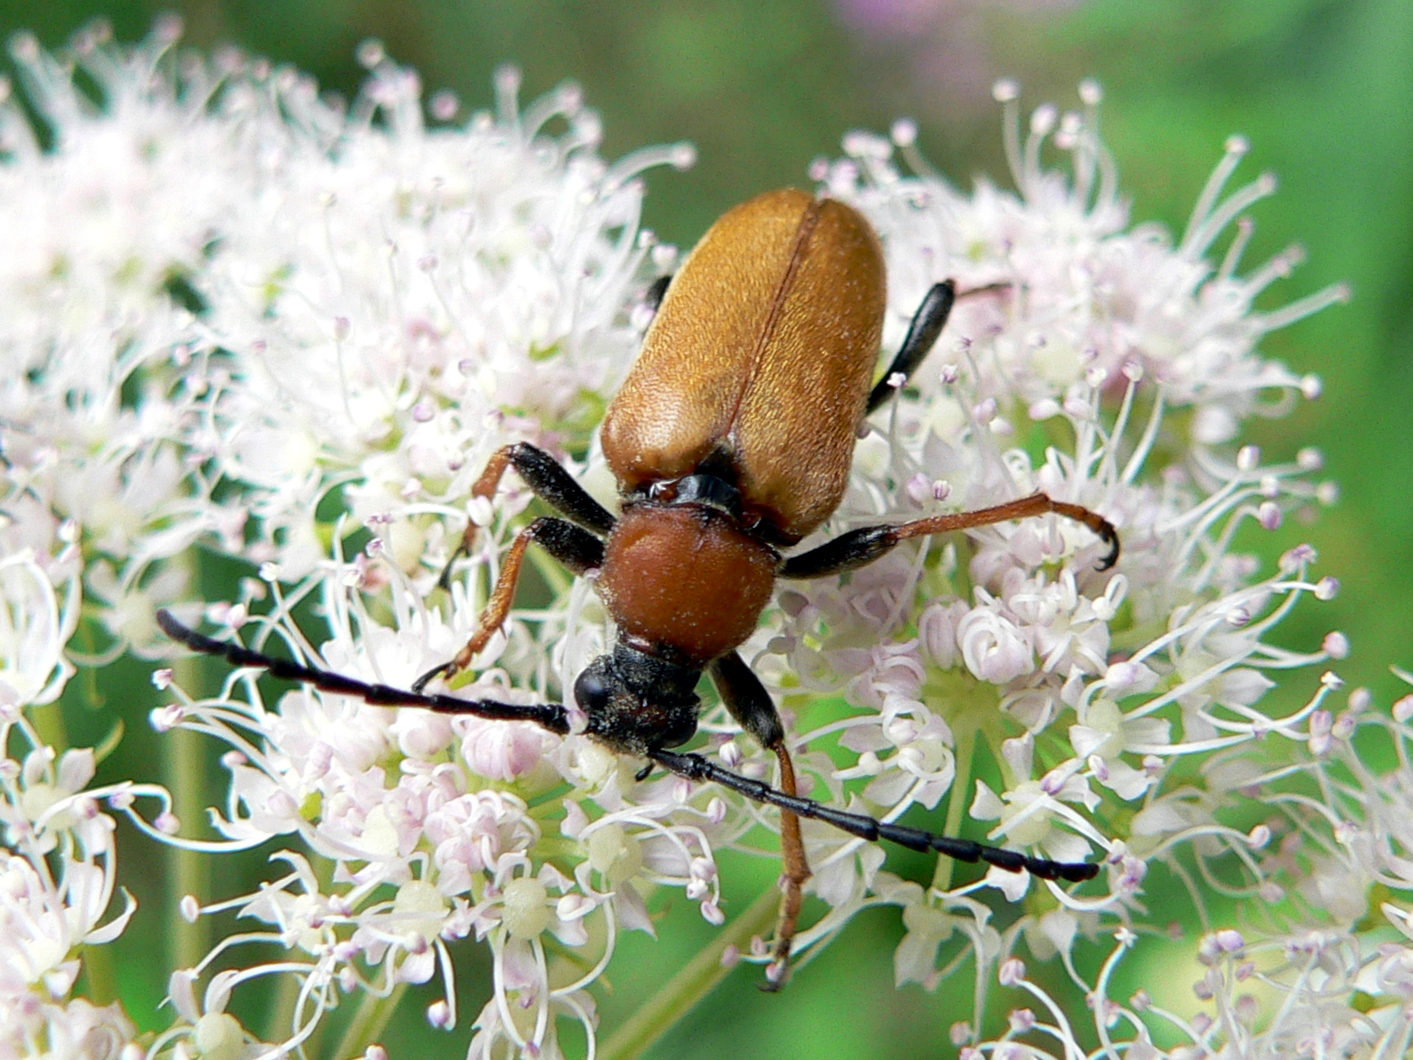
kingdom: Animalia
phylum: Arthropoda
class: Insecta
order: Coleoptera
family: Cerambycidae
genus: Stictoleptura
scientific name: Stictoleptura rubra
